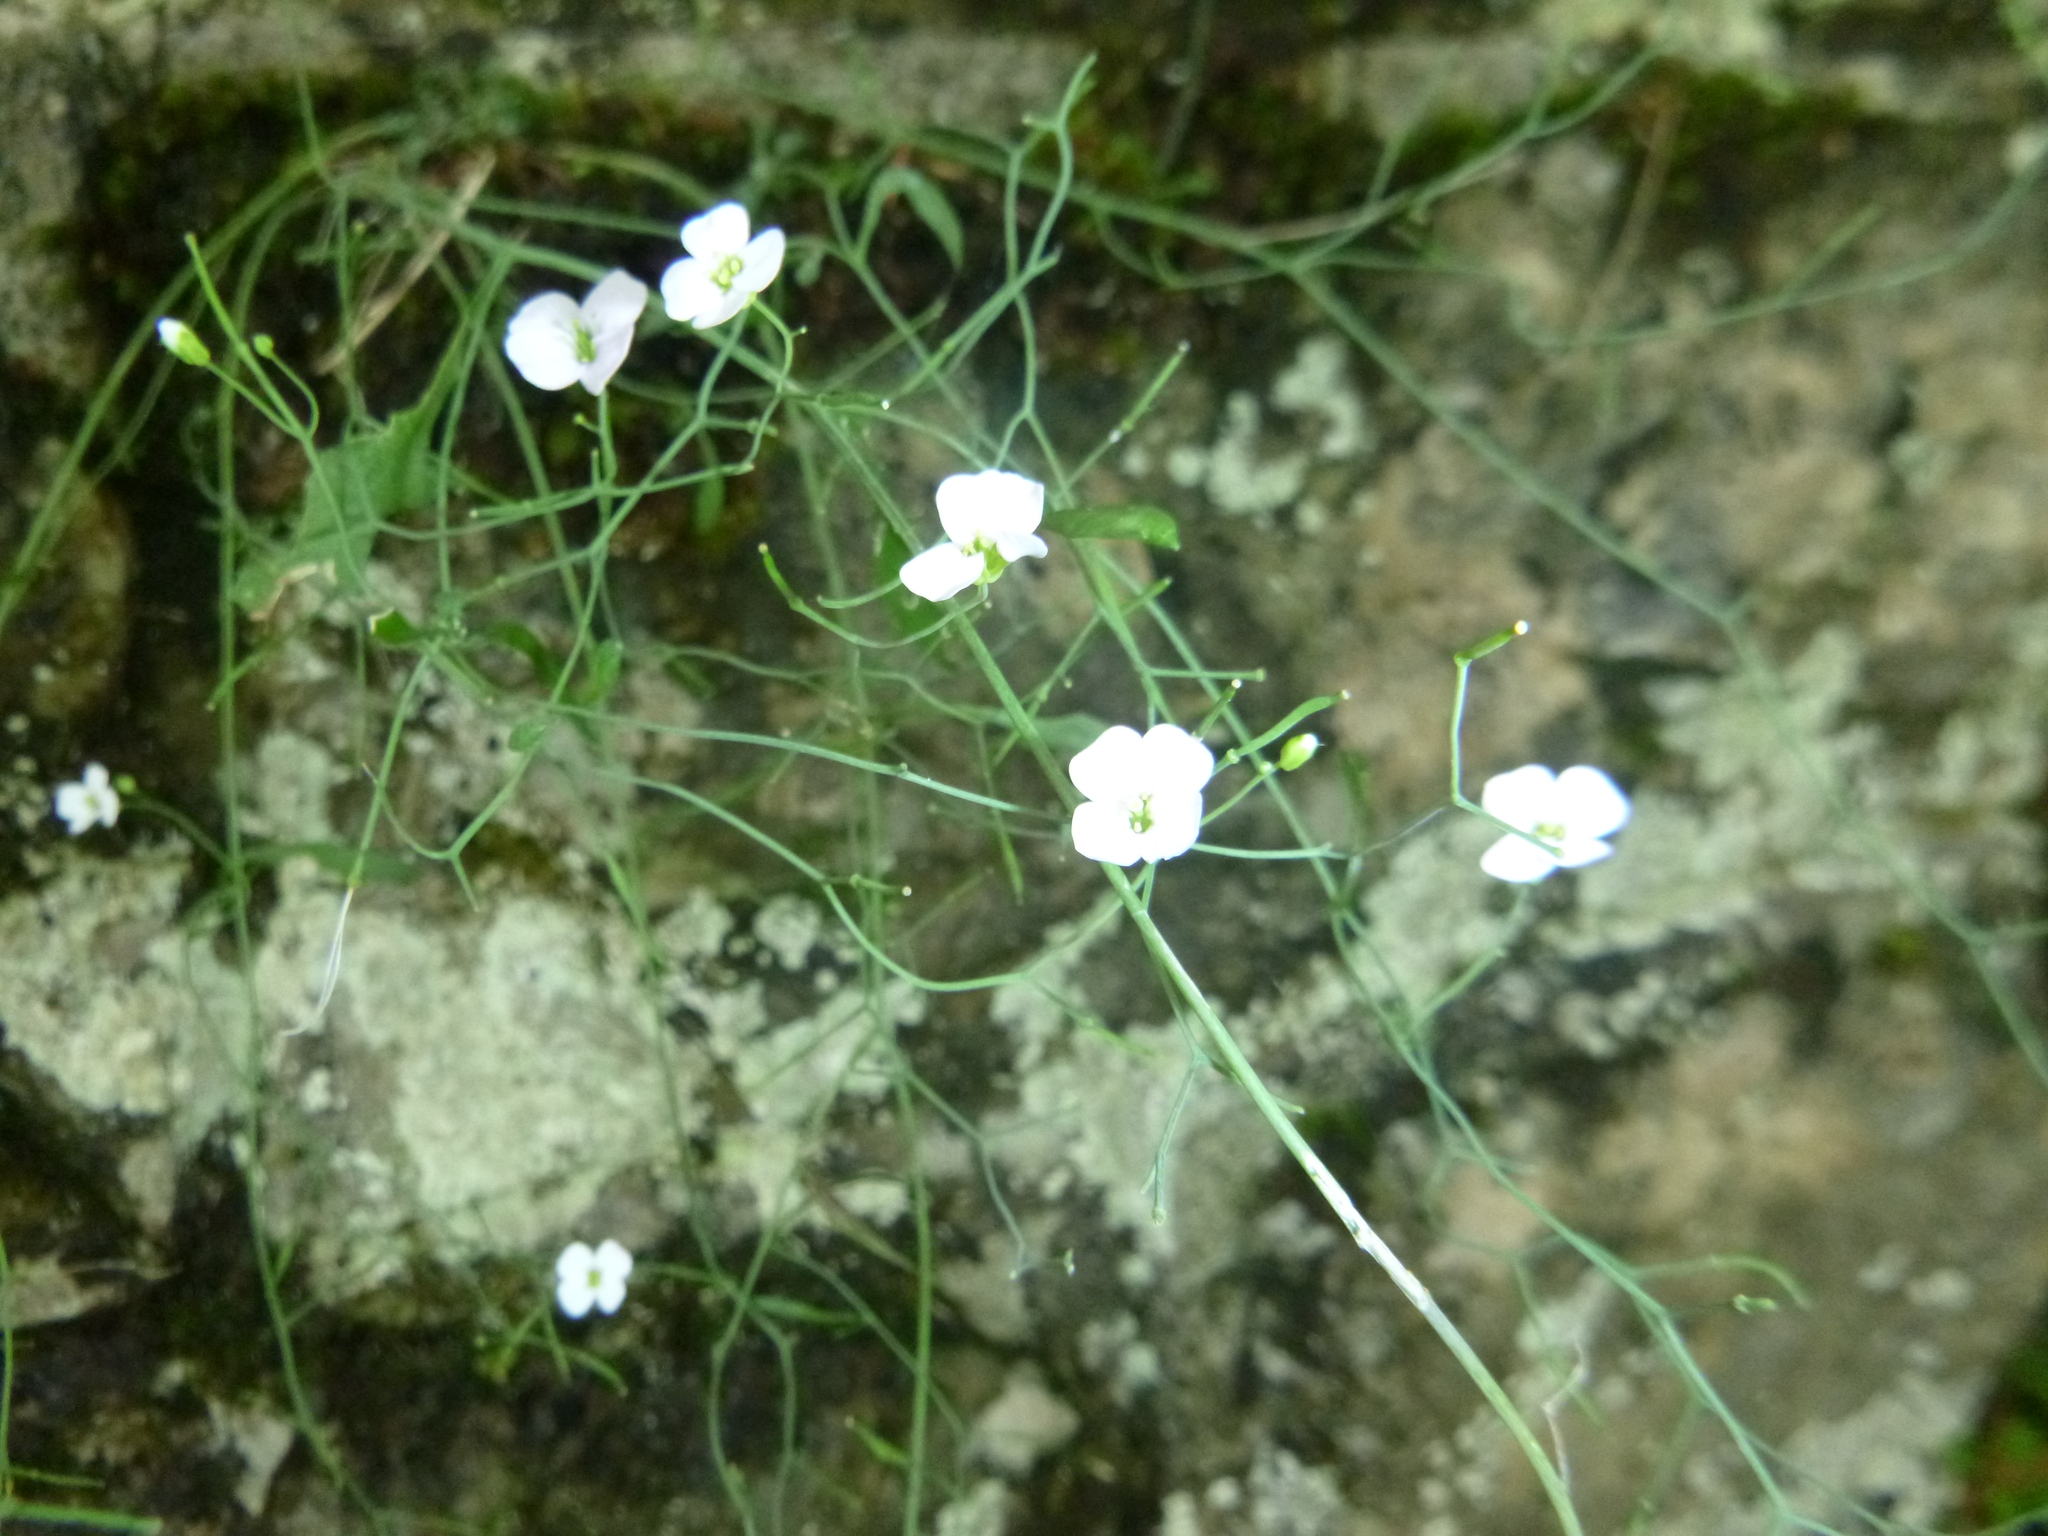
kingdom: Plantae
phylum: Tracheophyta
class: Magnoliopsida
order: Brassicales
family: Brassicaceae
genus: Arabidopsis
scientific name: Arabidopsis arenosa
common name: Sand rock-cress
